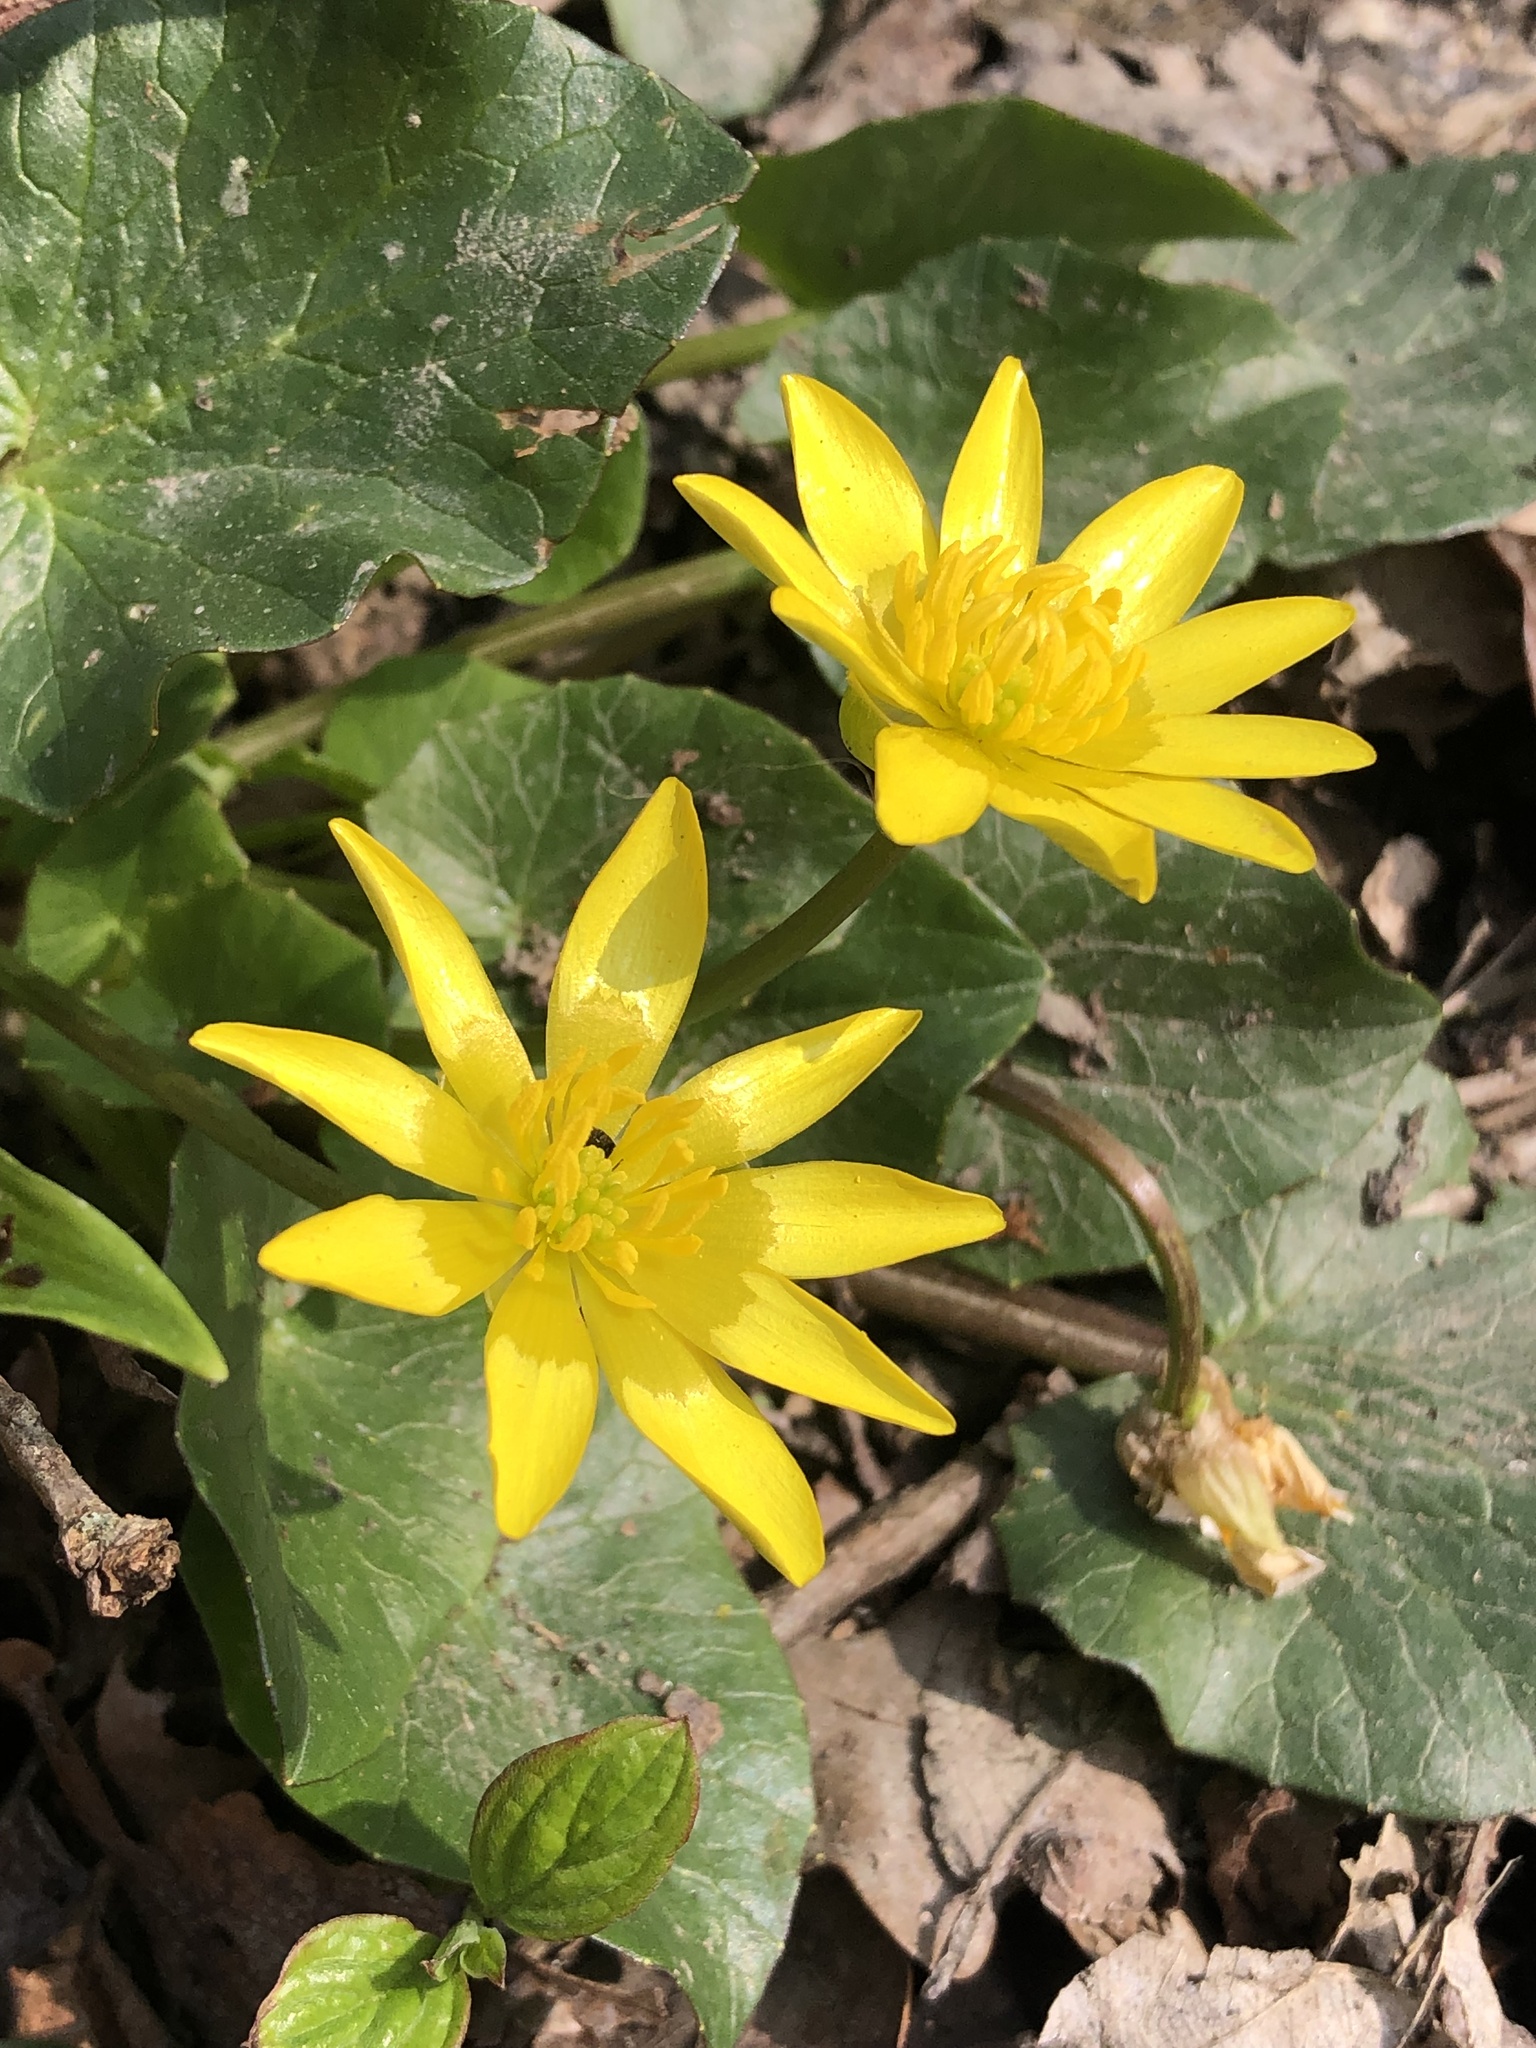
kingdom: Plantae
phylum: Tracheophyta
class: Magnoliopsida
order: Ranunculales
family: Ranunculaceae
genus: Ficaria
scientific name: Ficaria verna
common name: Lesser celandine
